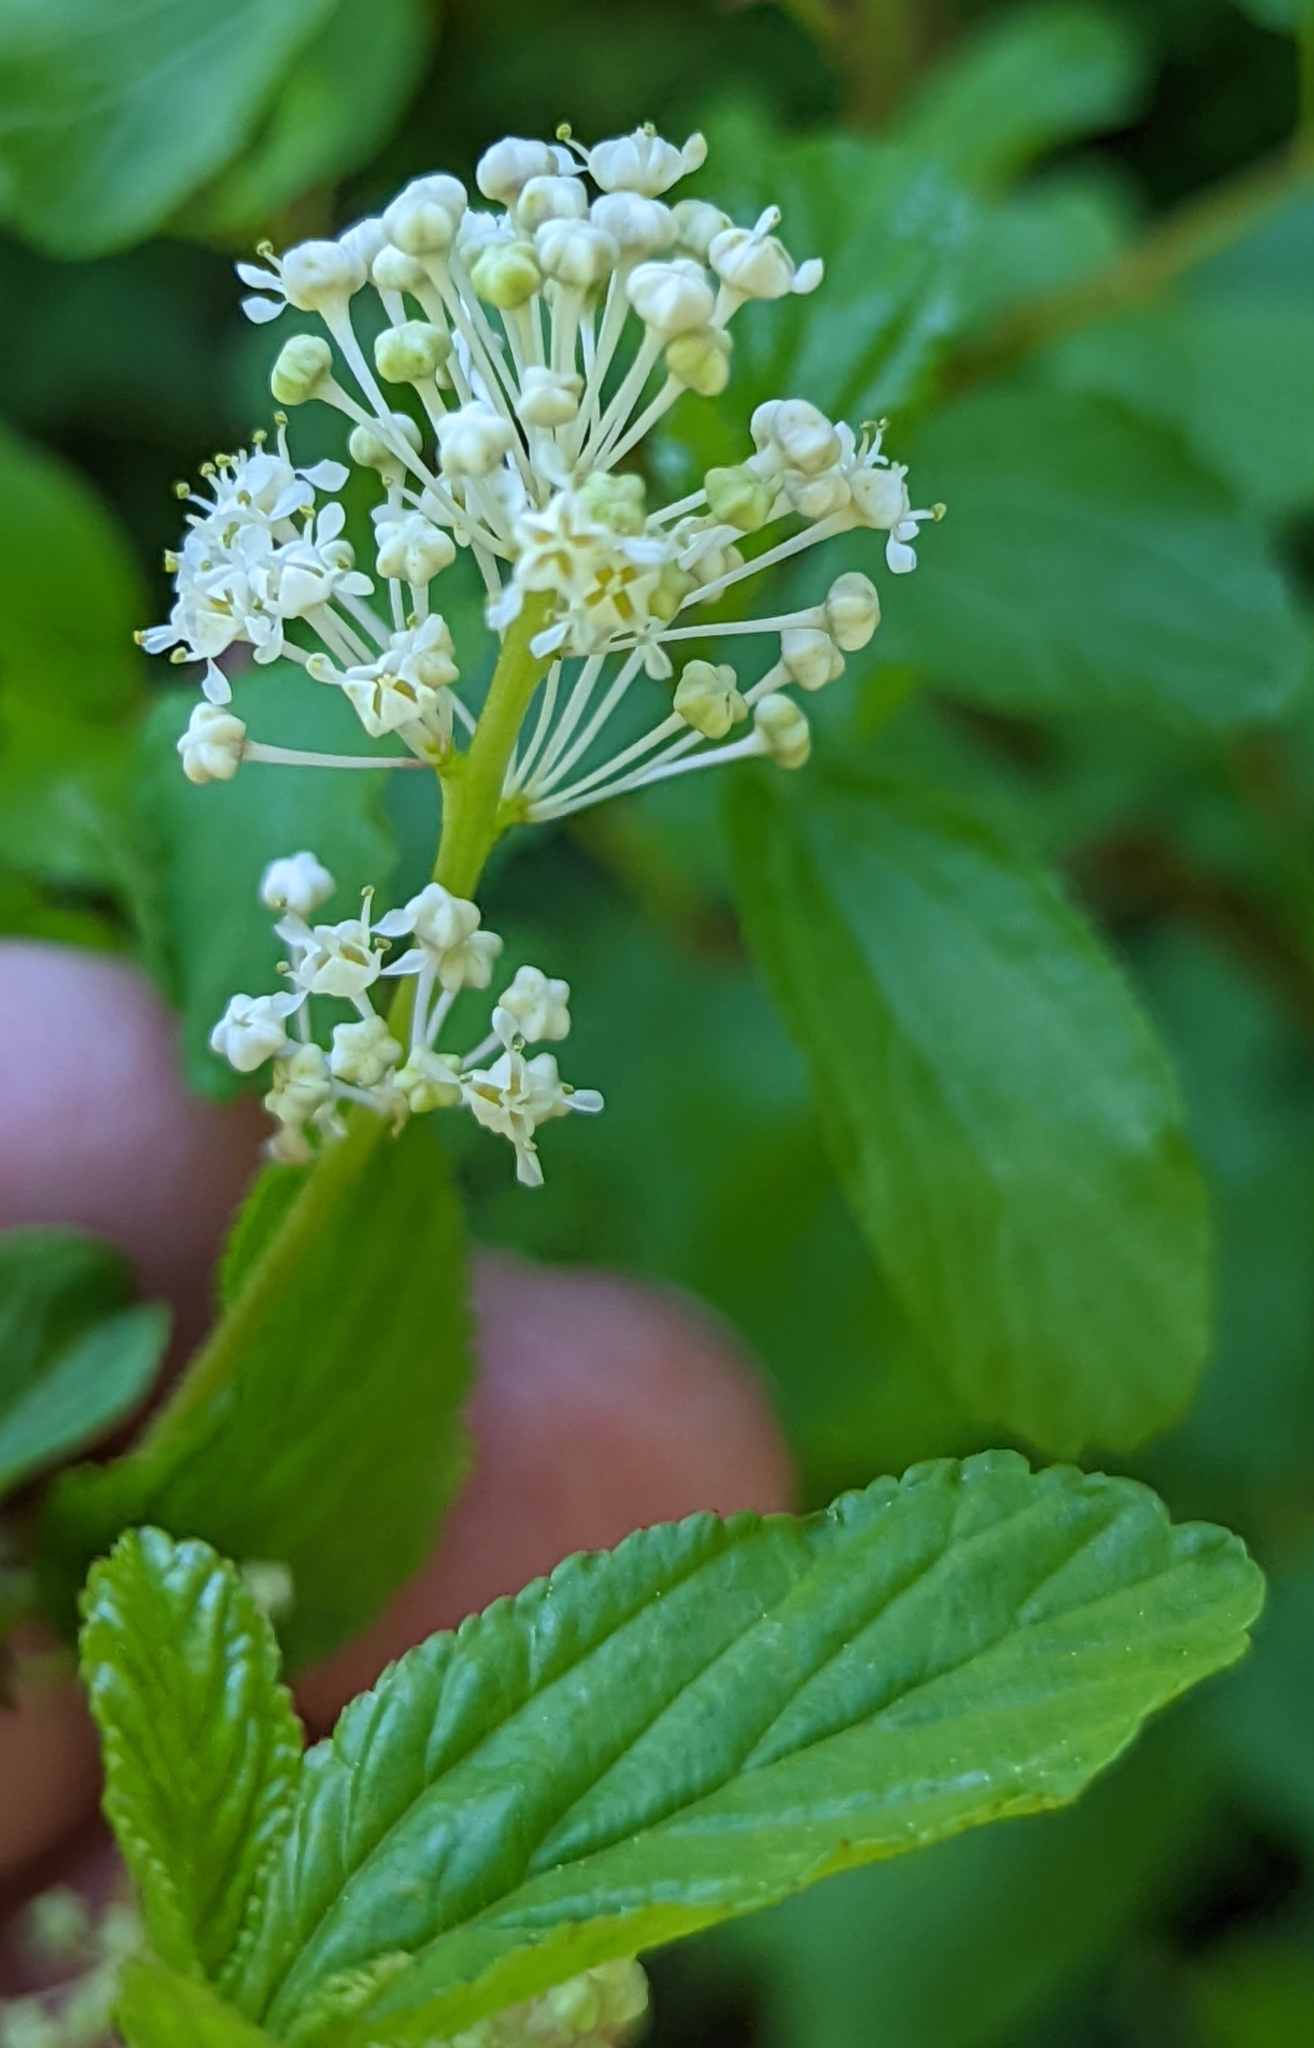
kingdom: Plantae
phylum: Tracheophyta
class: Magnoliopsida
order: Rosales
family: Rhamnaceae
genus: Ceanothus
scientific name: Ceanothus sanguineus
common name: Teatree
